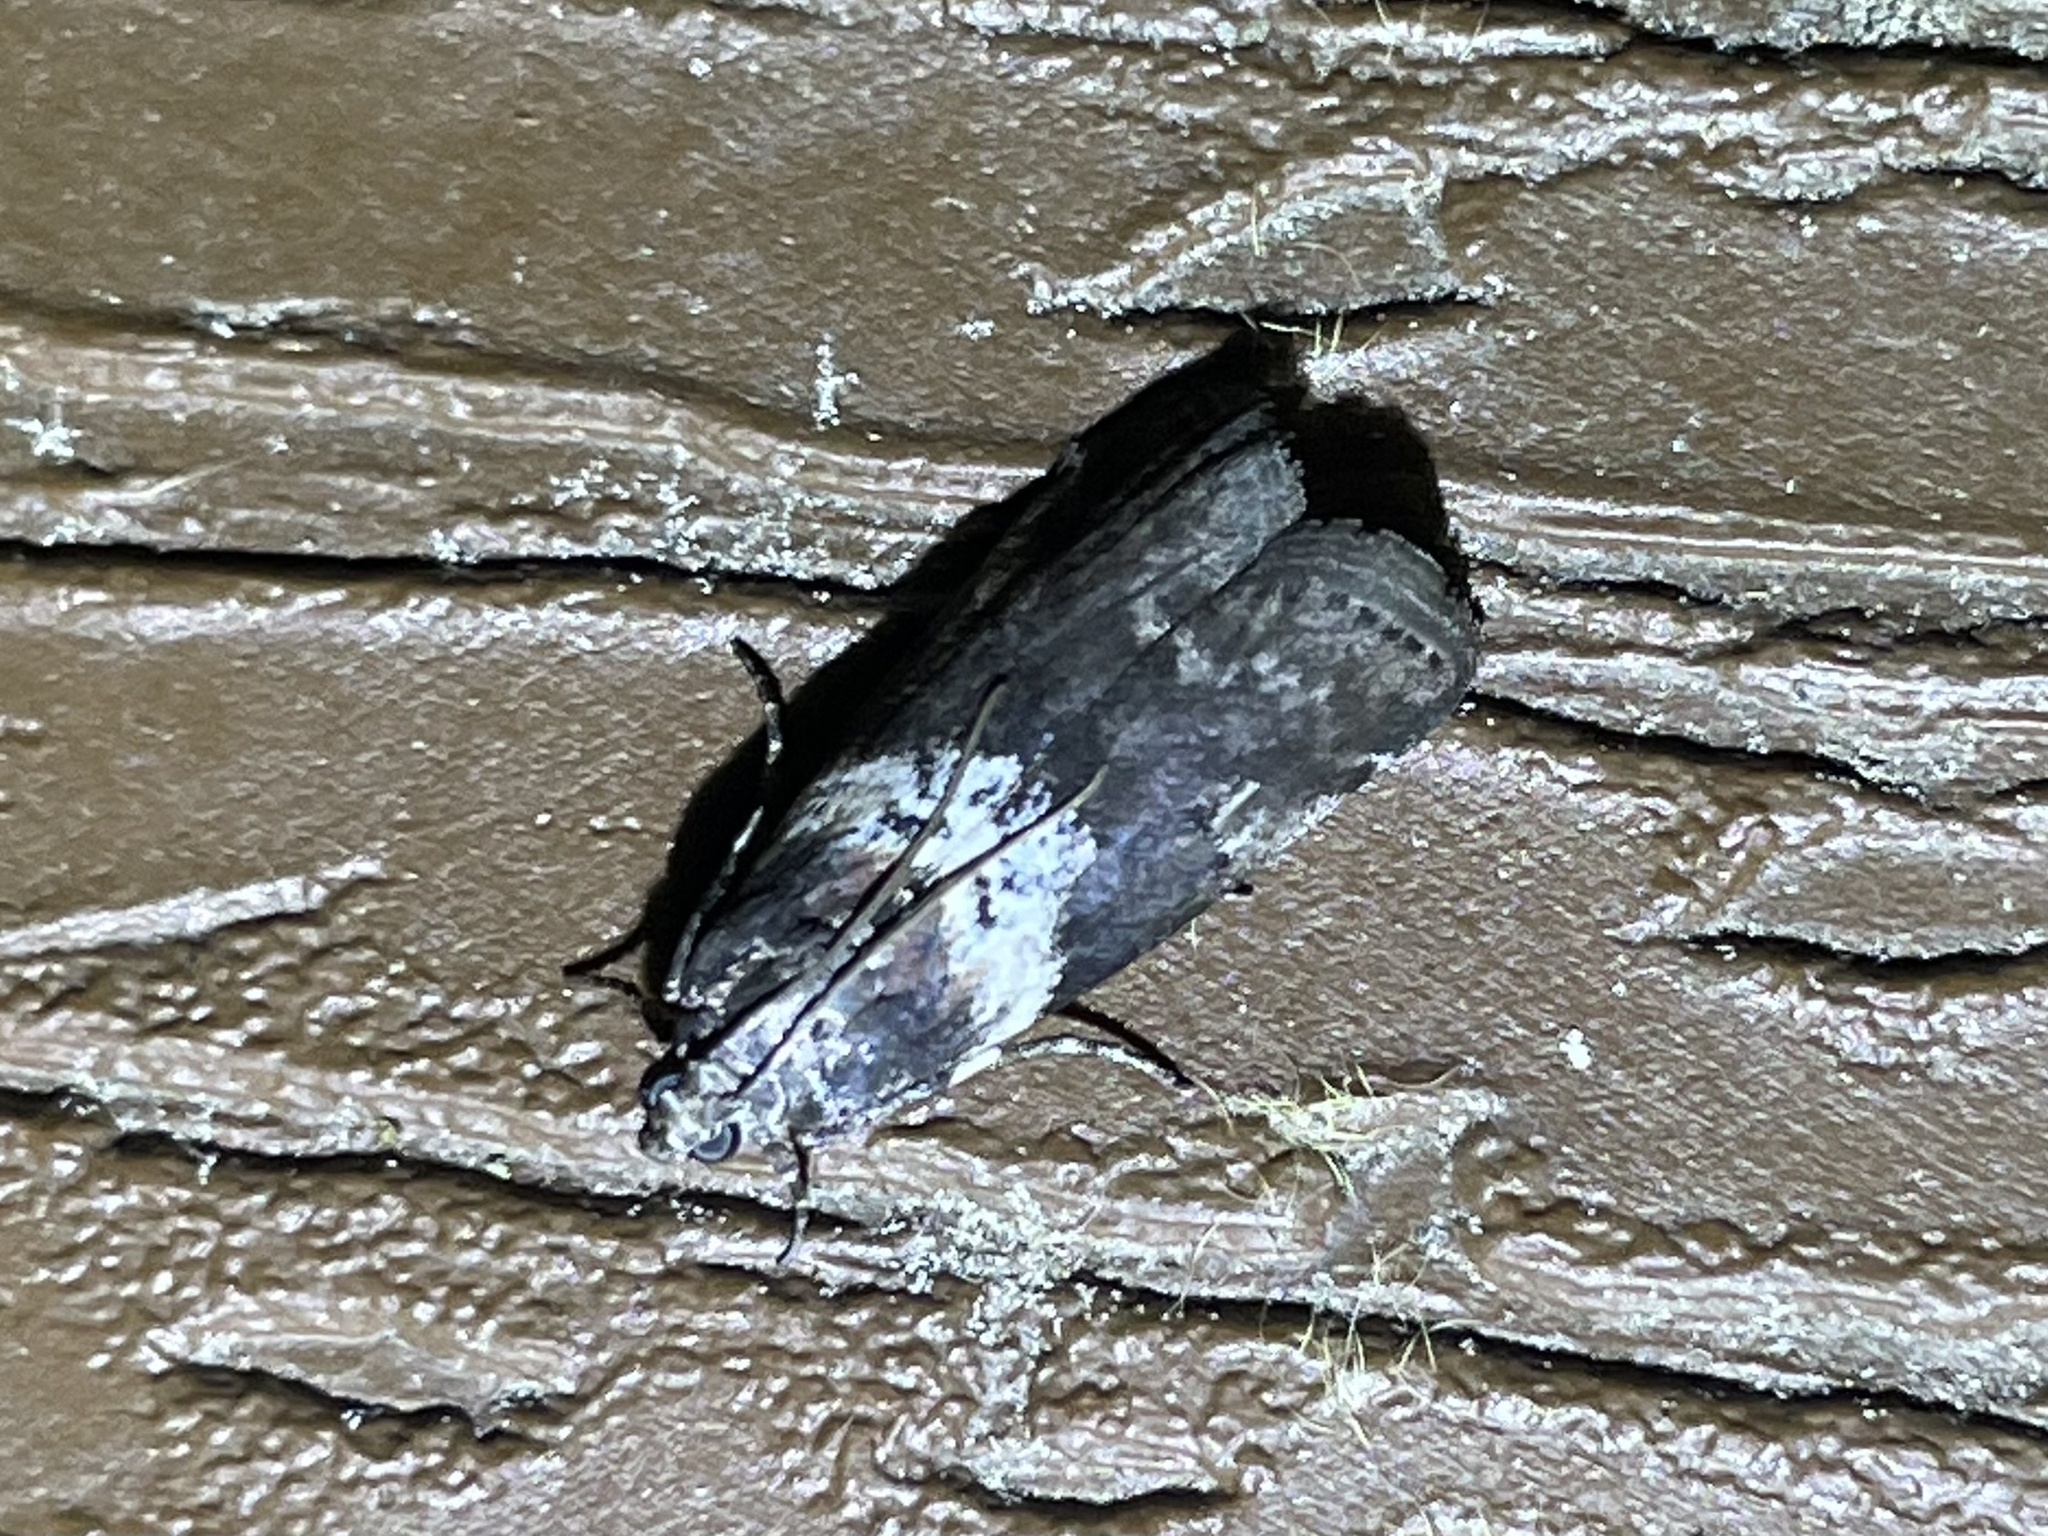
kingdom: Animalia
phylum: Arthropoda
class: Insecta
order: Lepidoptera
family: Pyralidae
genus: Salebriaria
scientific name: Salebriaria rufimaculatella
